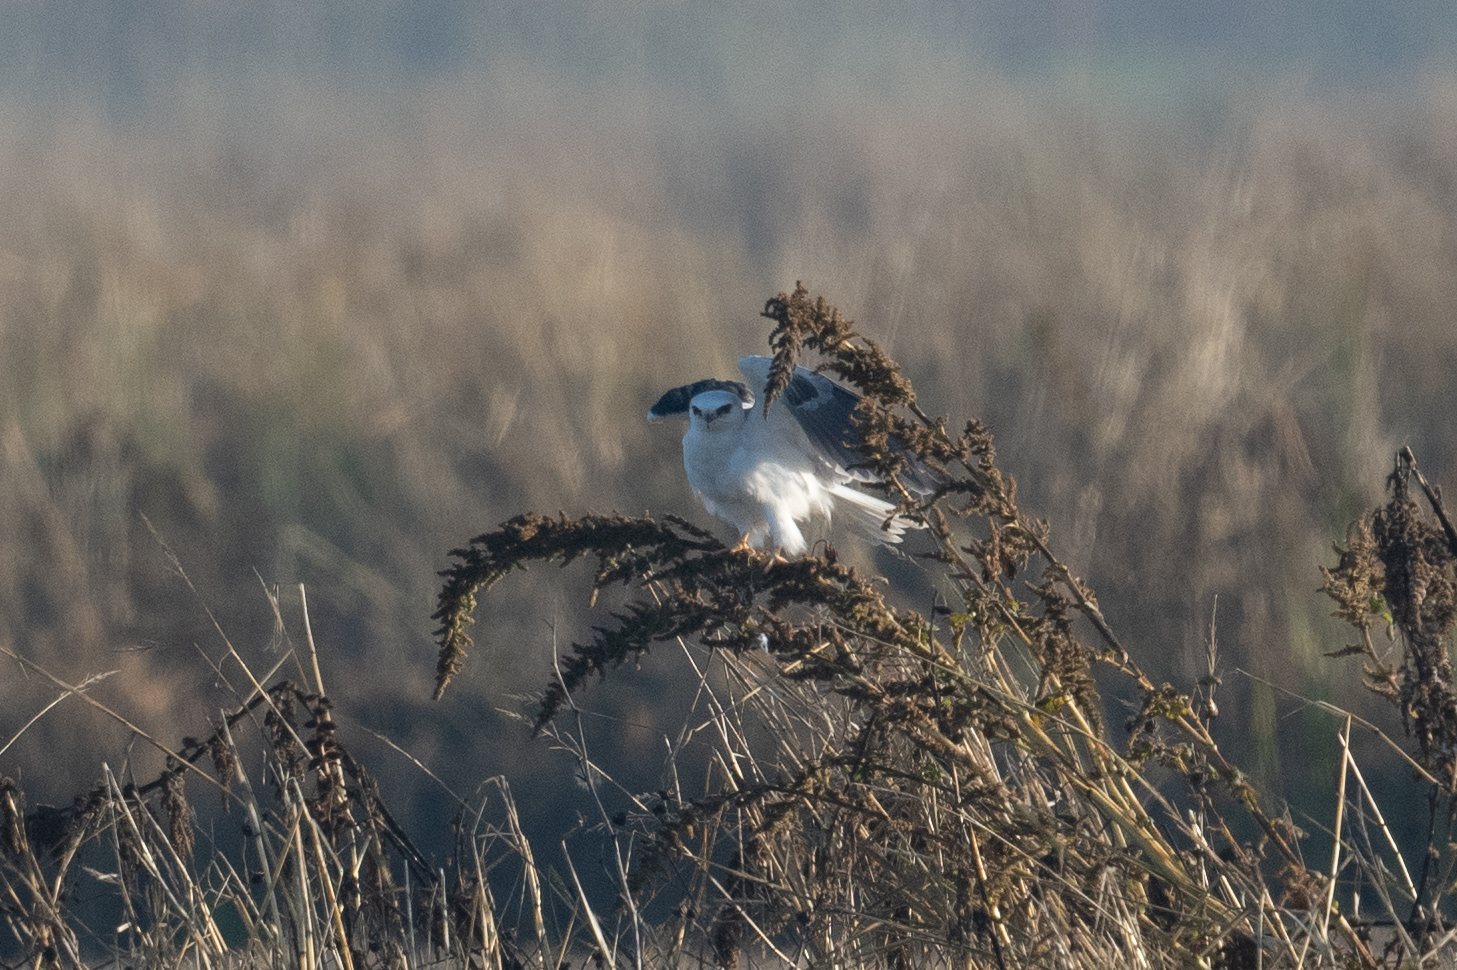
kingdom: Animalia
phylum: Chordata
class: Aves
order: Accipitriformes
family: Accipitridae
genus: Elanus
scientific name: Elanus leucurus
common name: White-tailed kite
